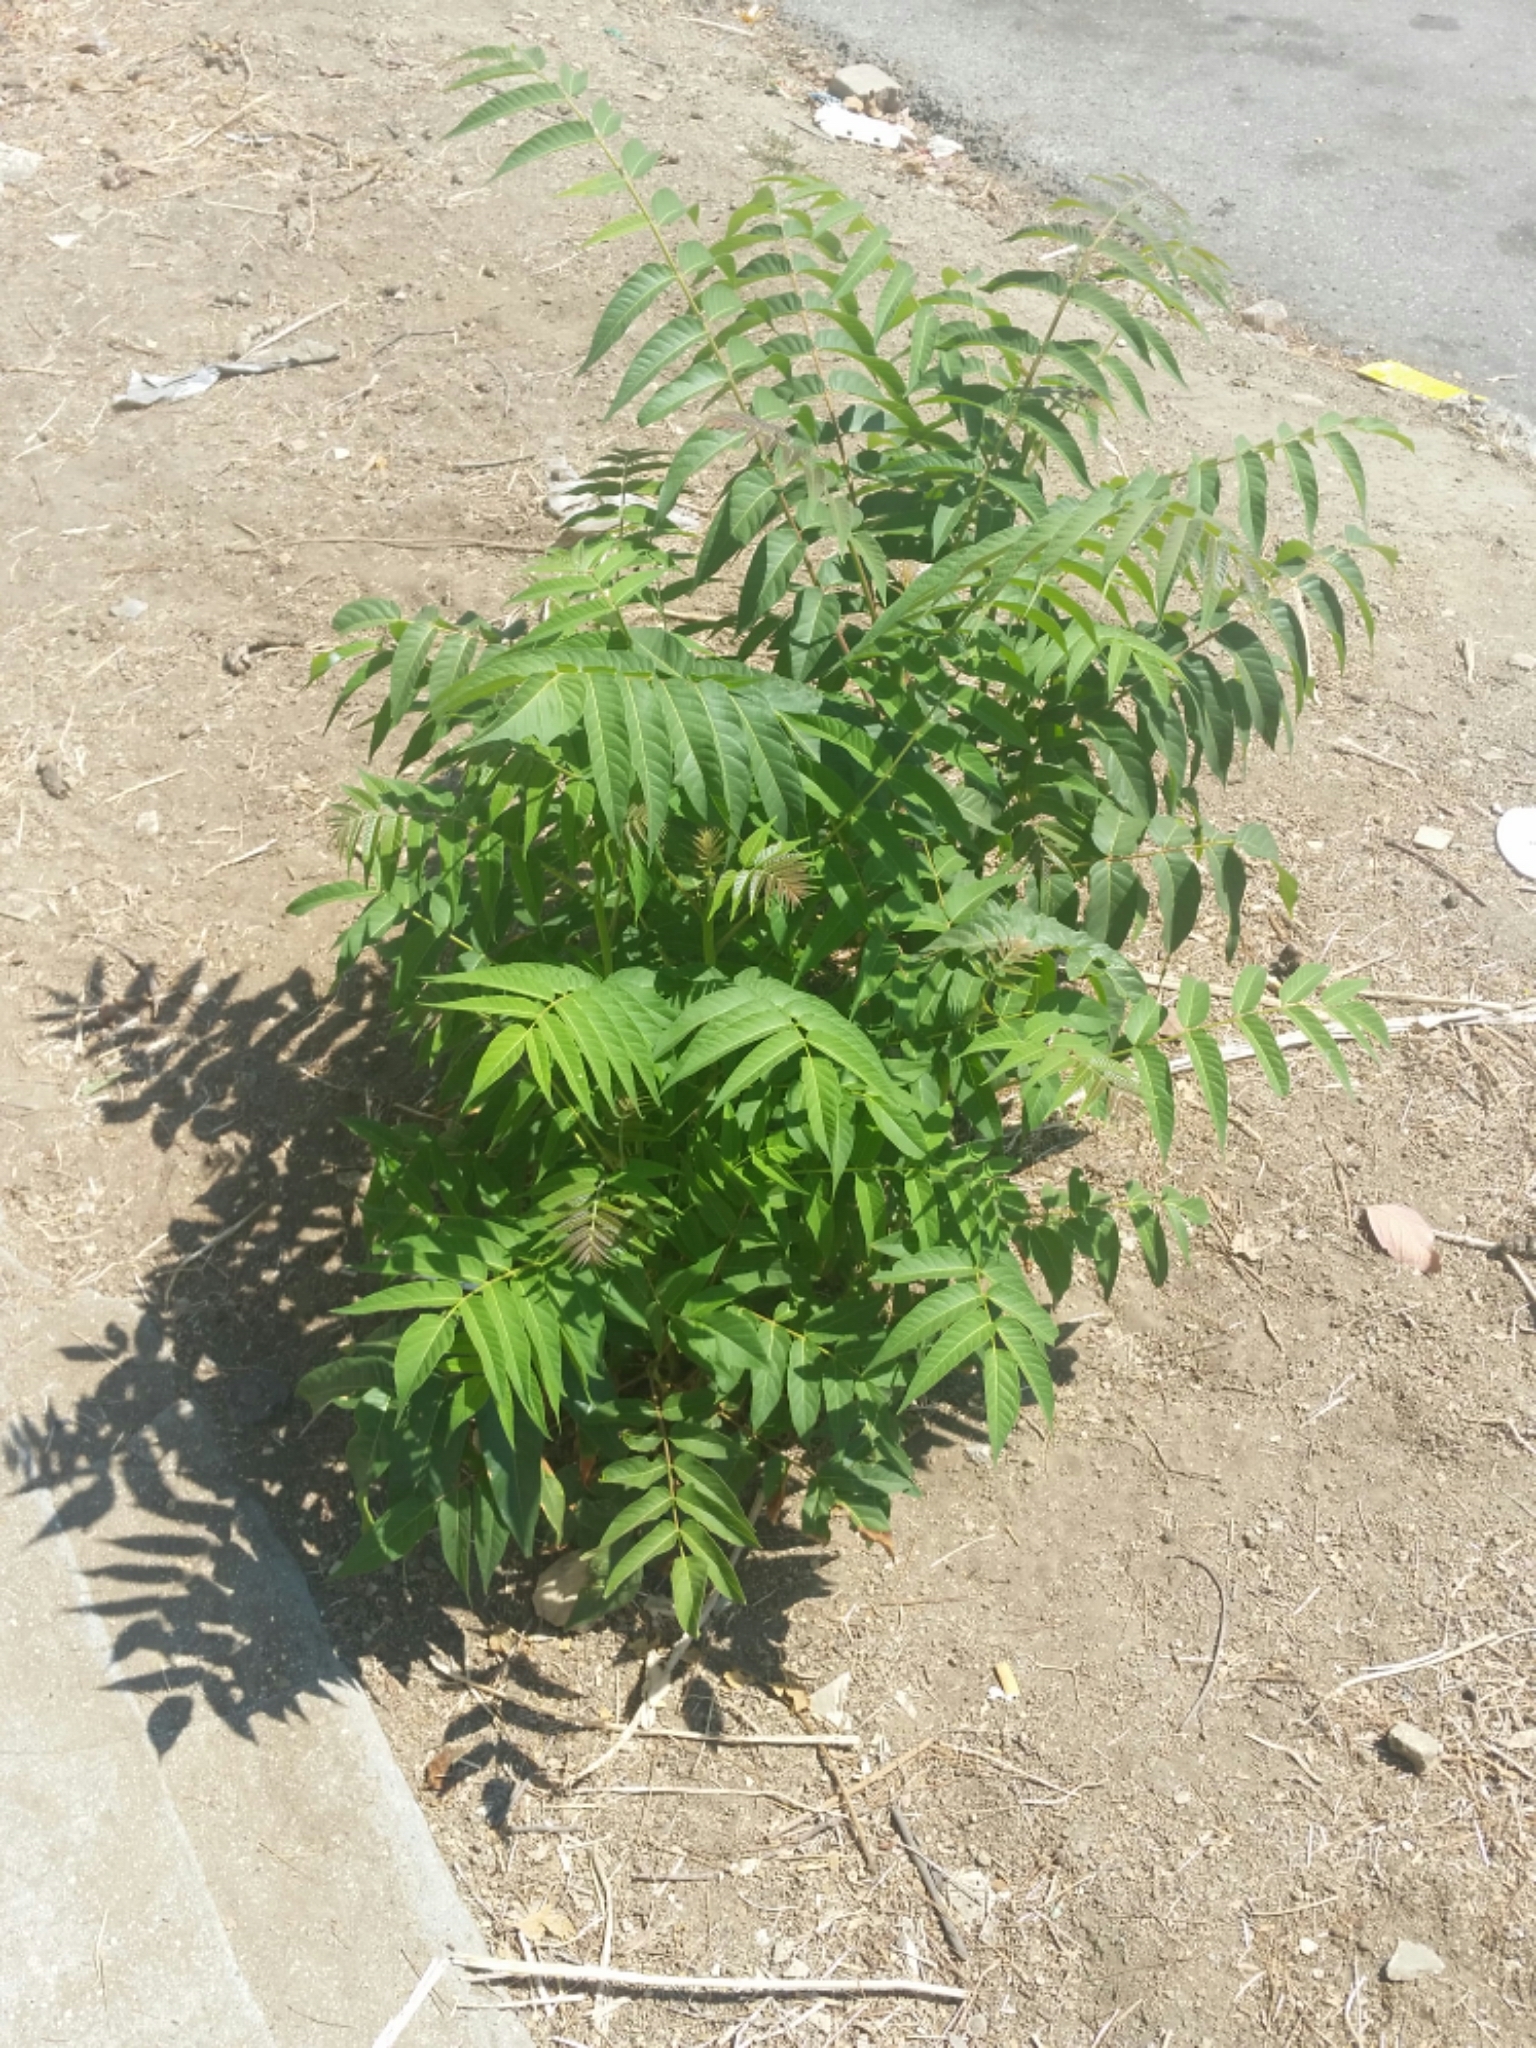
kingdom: Plantae
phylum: Tracheophyta
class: Magnoliopsida
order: Sapindales
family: Simaroubaceae
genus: Ailanthus
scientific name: Ailanthus altissima
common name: Tree-of-heaven
